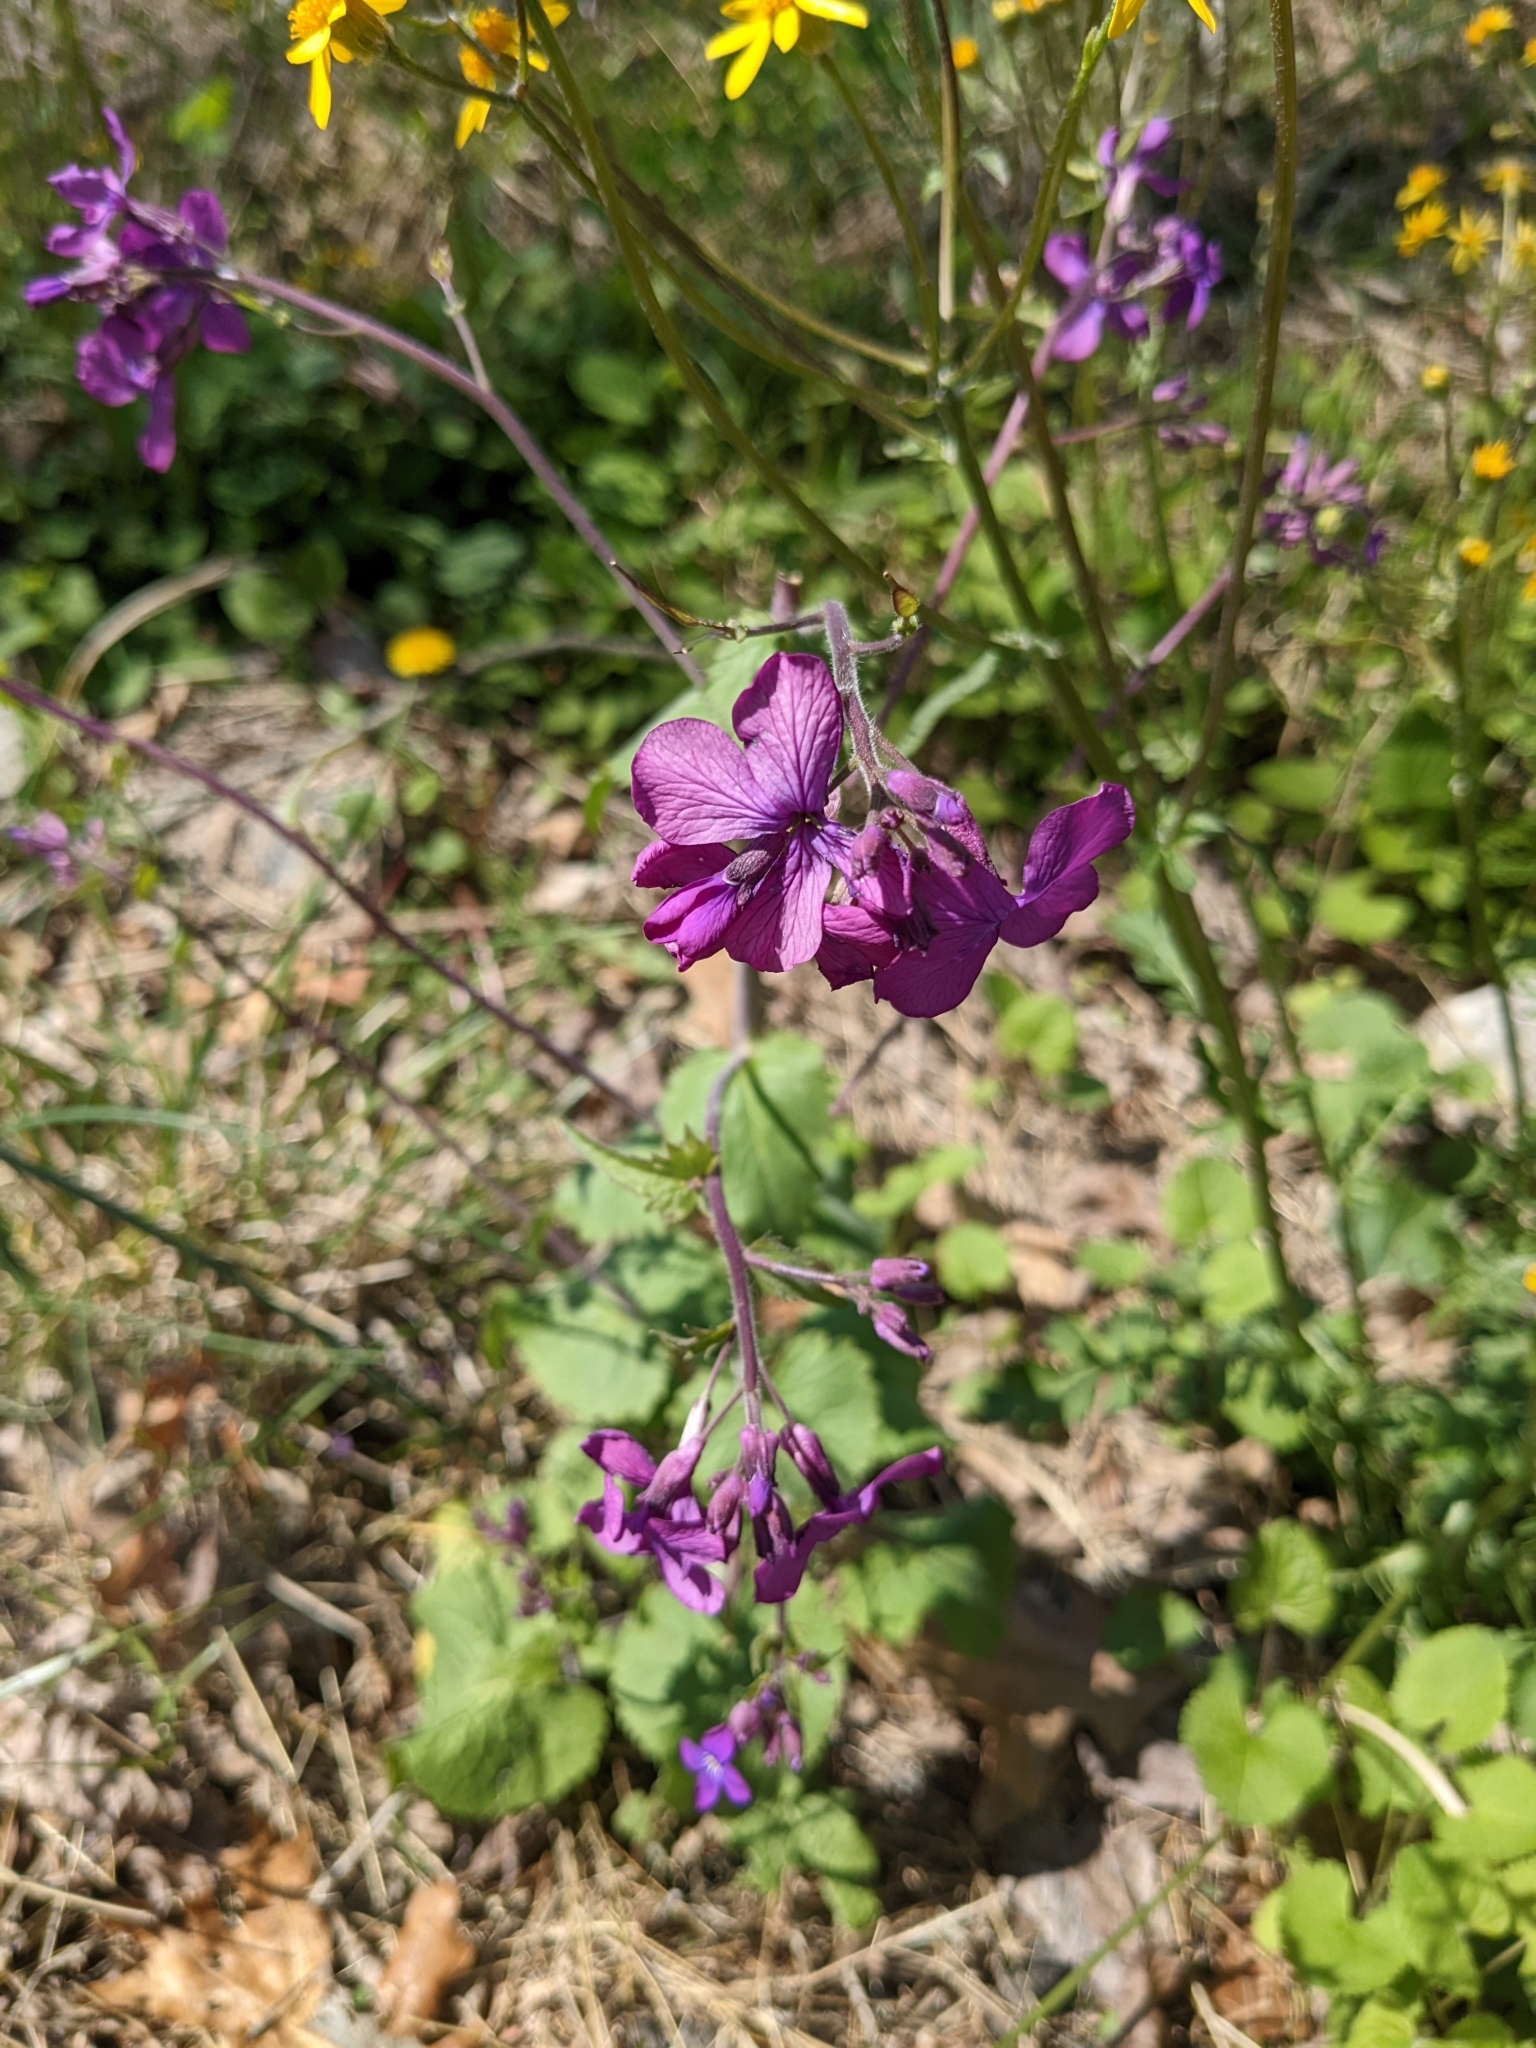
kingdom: Plantae
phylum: Tracheophyta
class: Magnoliopsida
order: Brassicales
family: Brassicaceae
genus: Lunaria
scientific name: Lunaria annua
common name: Honesty
